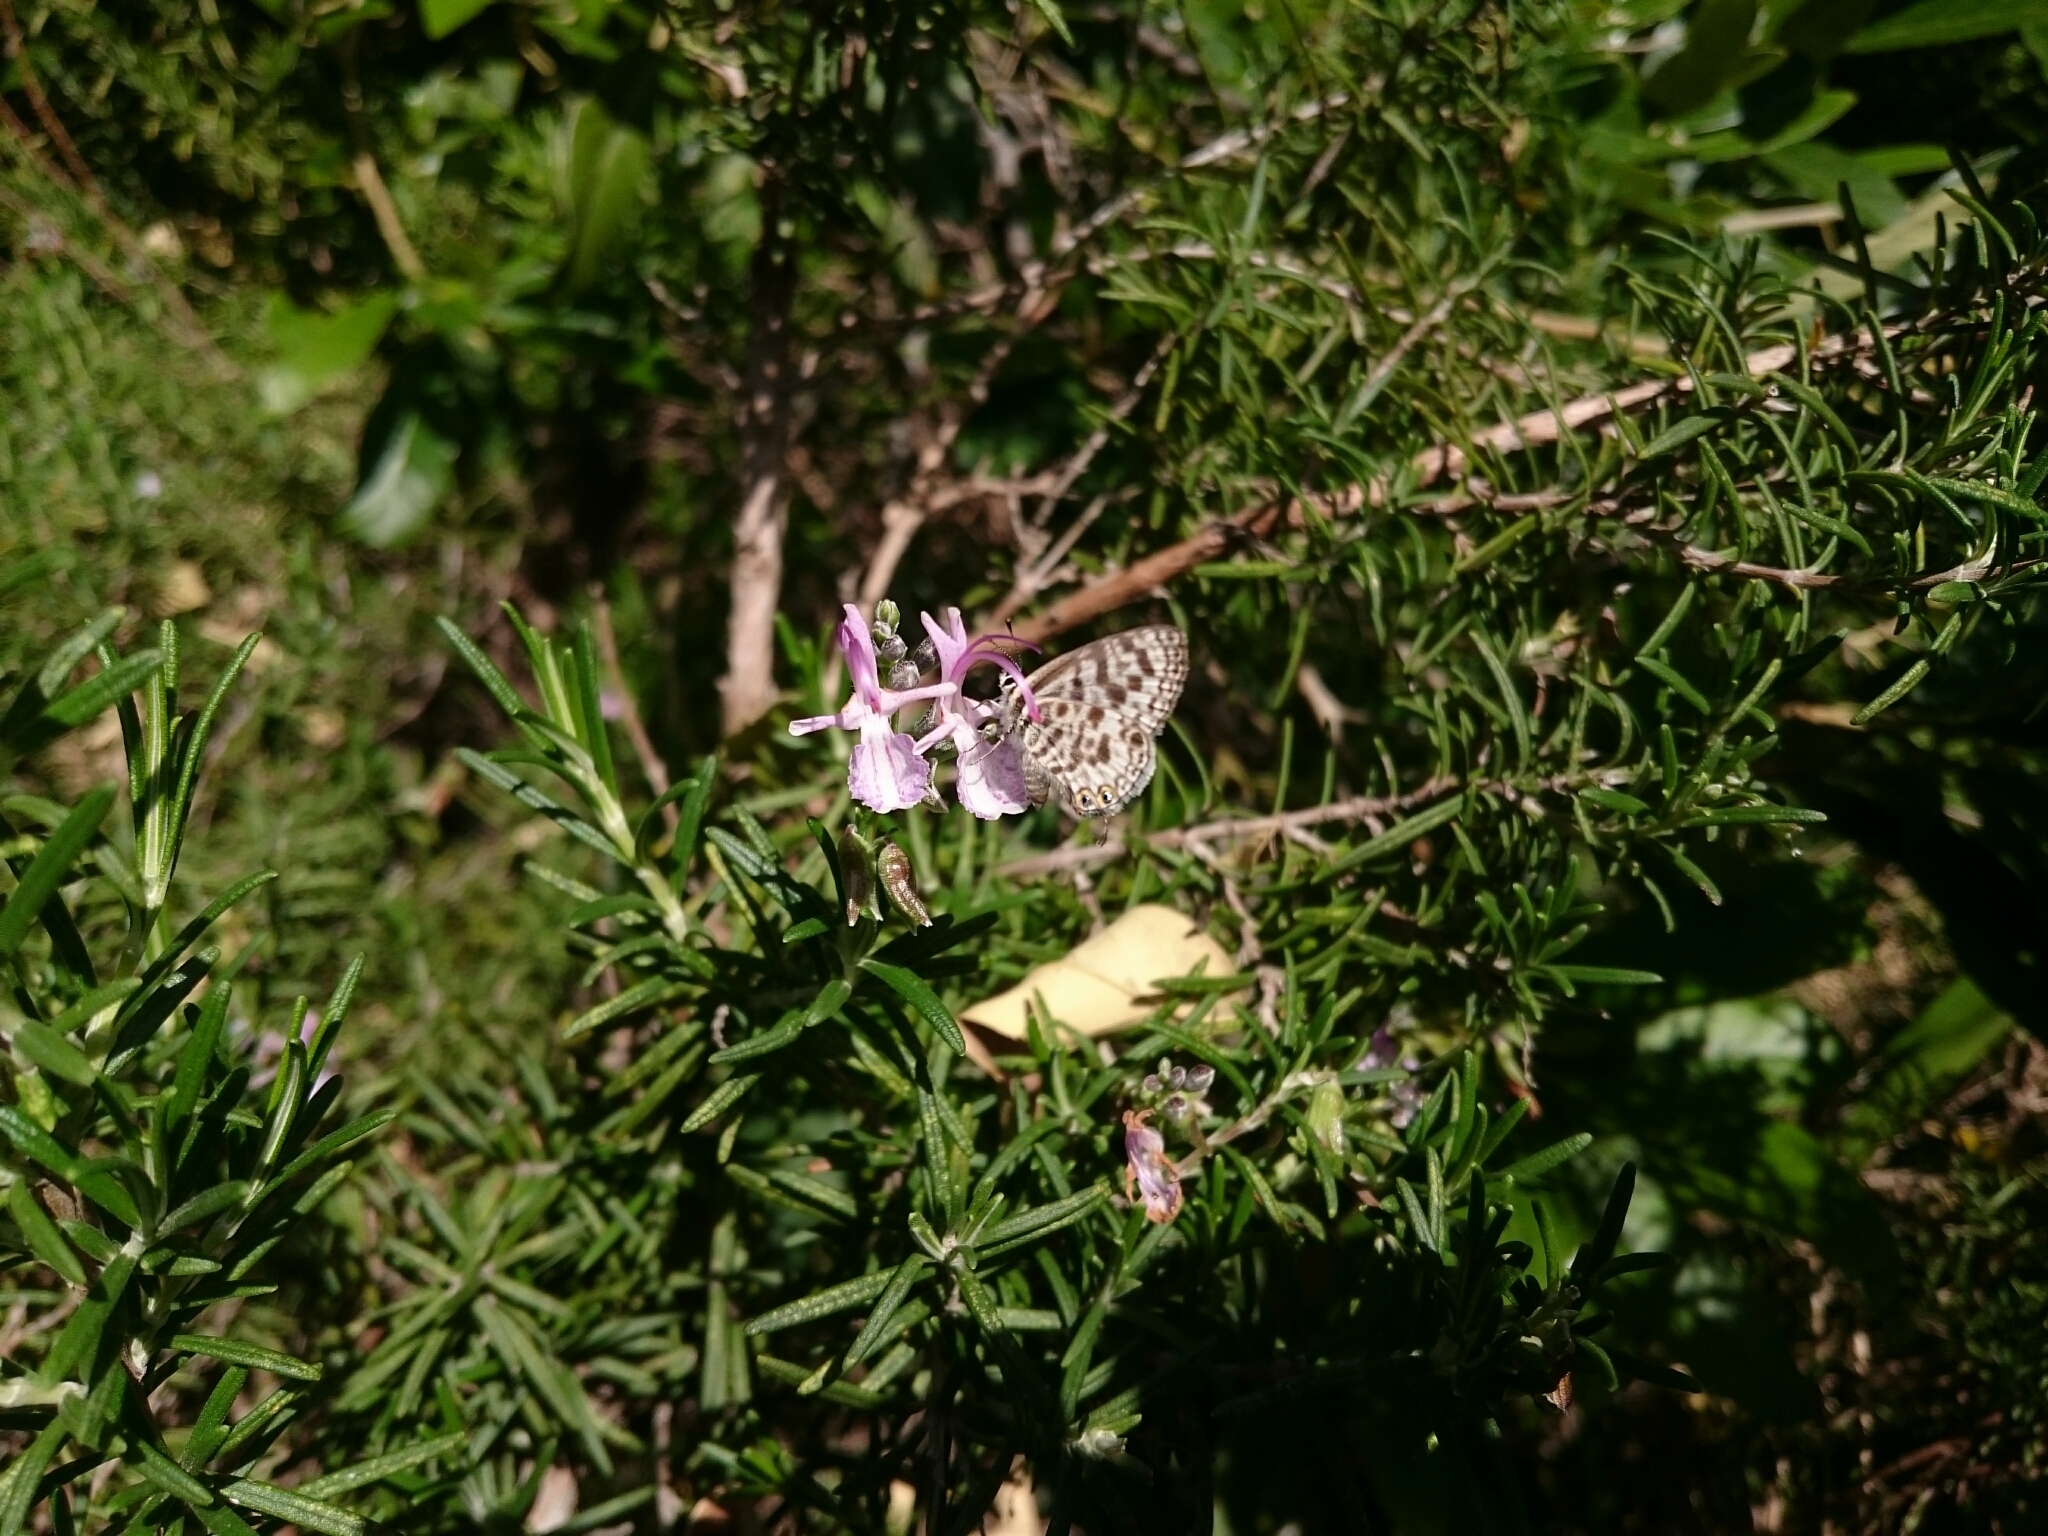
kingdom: Animalia
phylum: Arthropoda
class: Insecta
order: Lepidoptera
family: Lycaenidae
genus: Leptotes
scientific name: Leptotes
